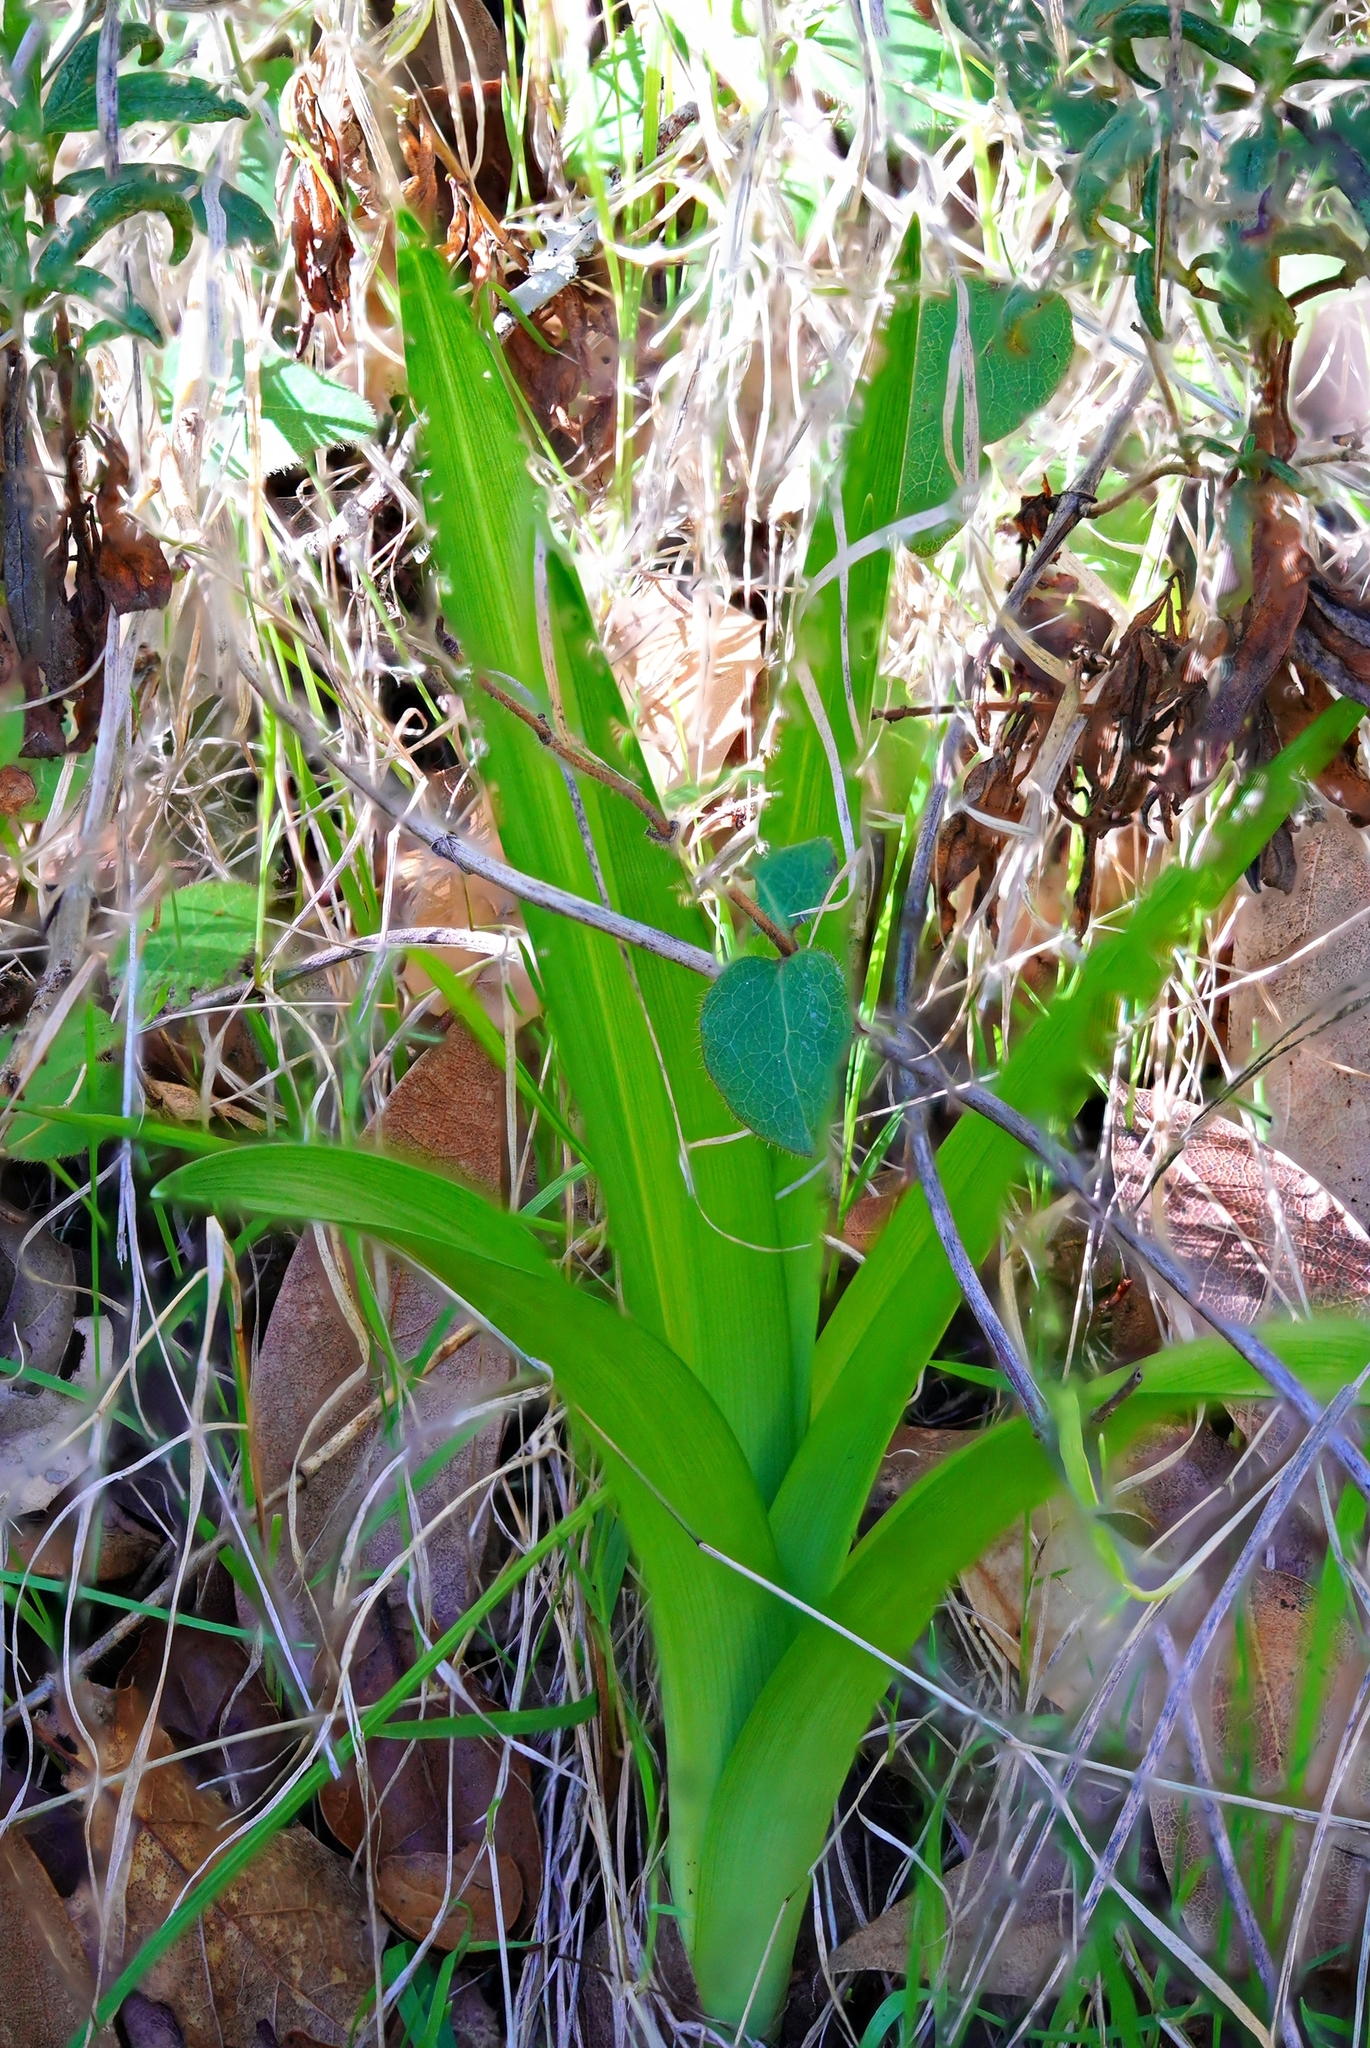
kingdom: Plantae
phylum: Tracheophyta
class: Liliopsida
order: Liliales
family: Melanthiaceae
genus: Toxicoscordion
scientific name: Toxicoscordion fremontii
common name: Fremont's death camas
